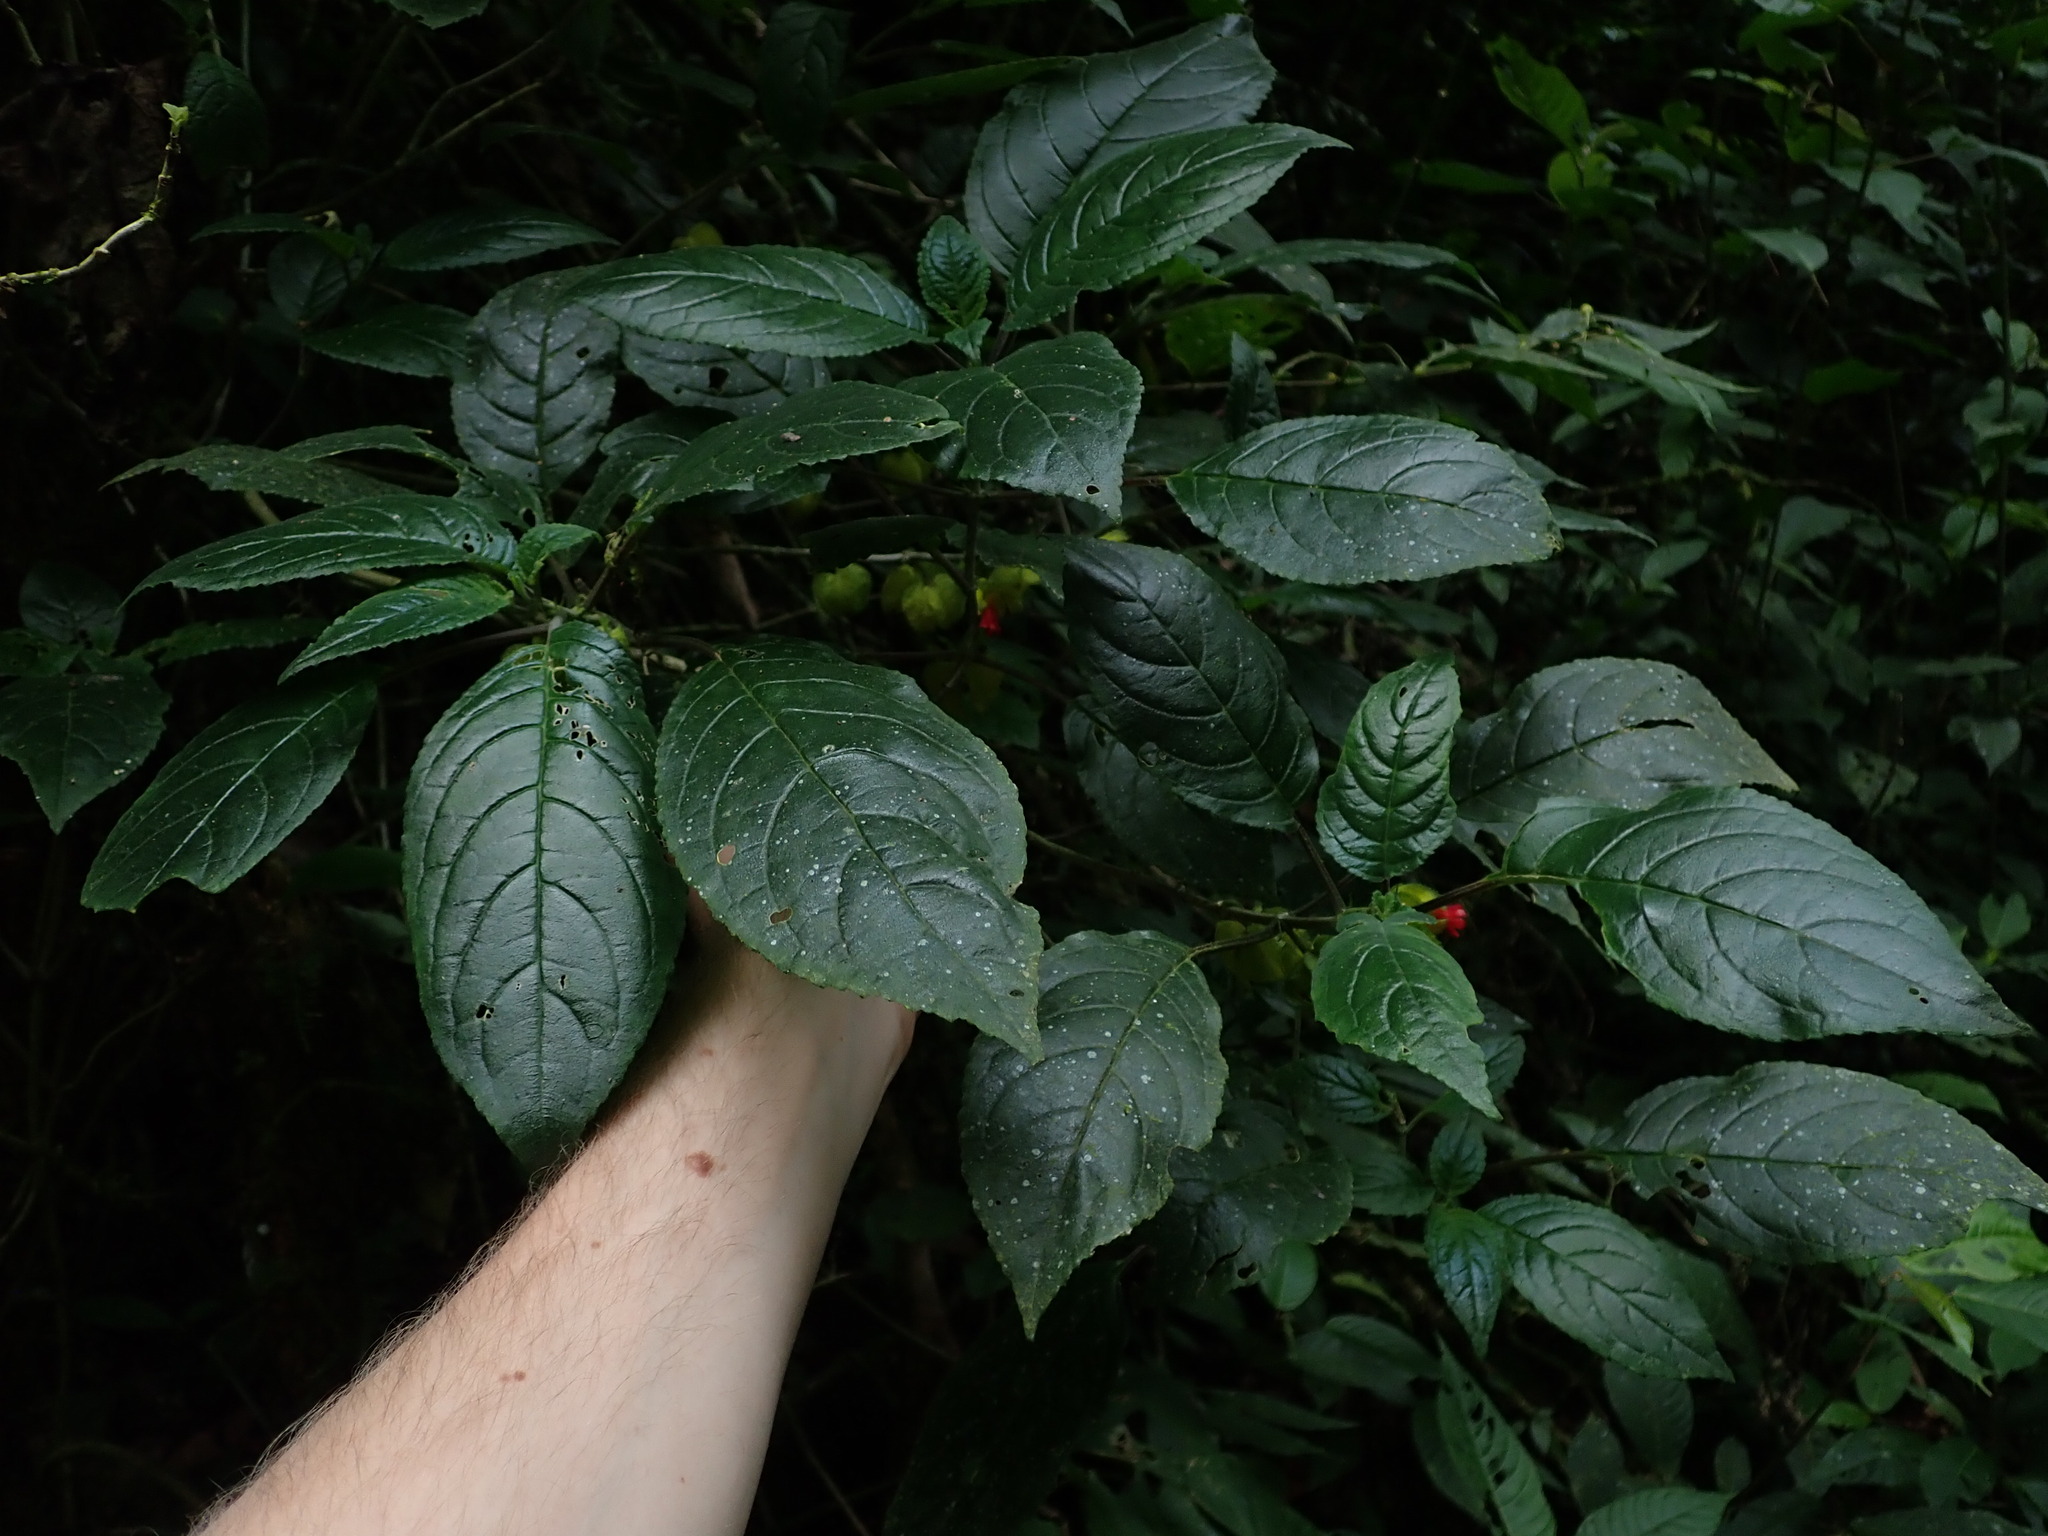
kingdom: Plantae
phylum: Tracheophyta
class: Magnoliopsida
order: Lamiales
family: Gesneriaceae
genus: Drymonia
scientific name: Drymonia tenuis
